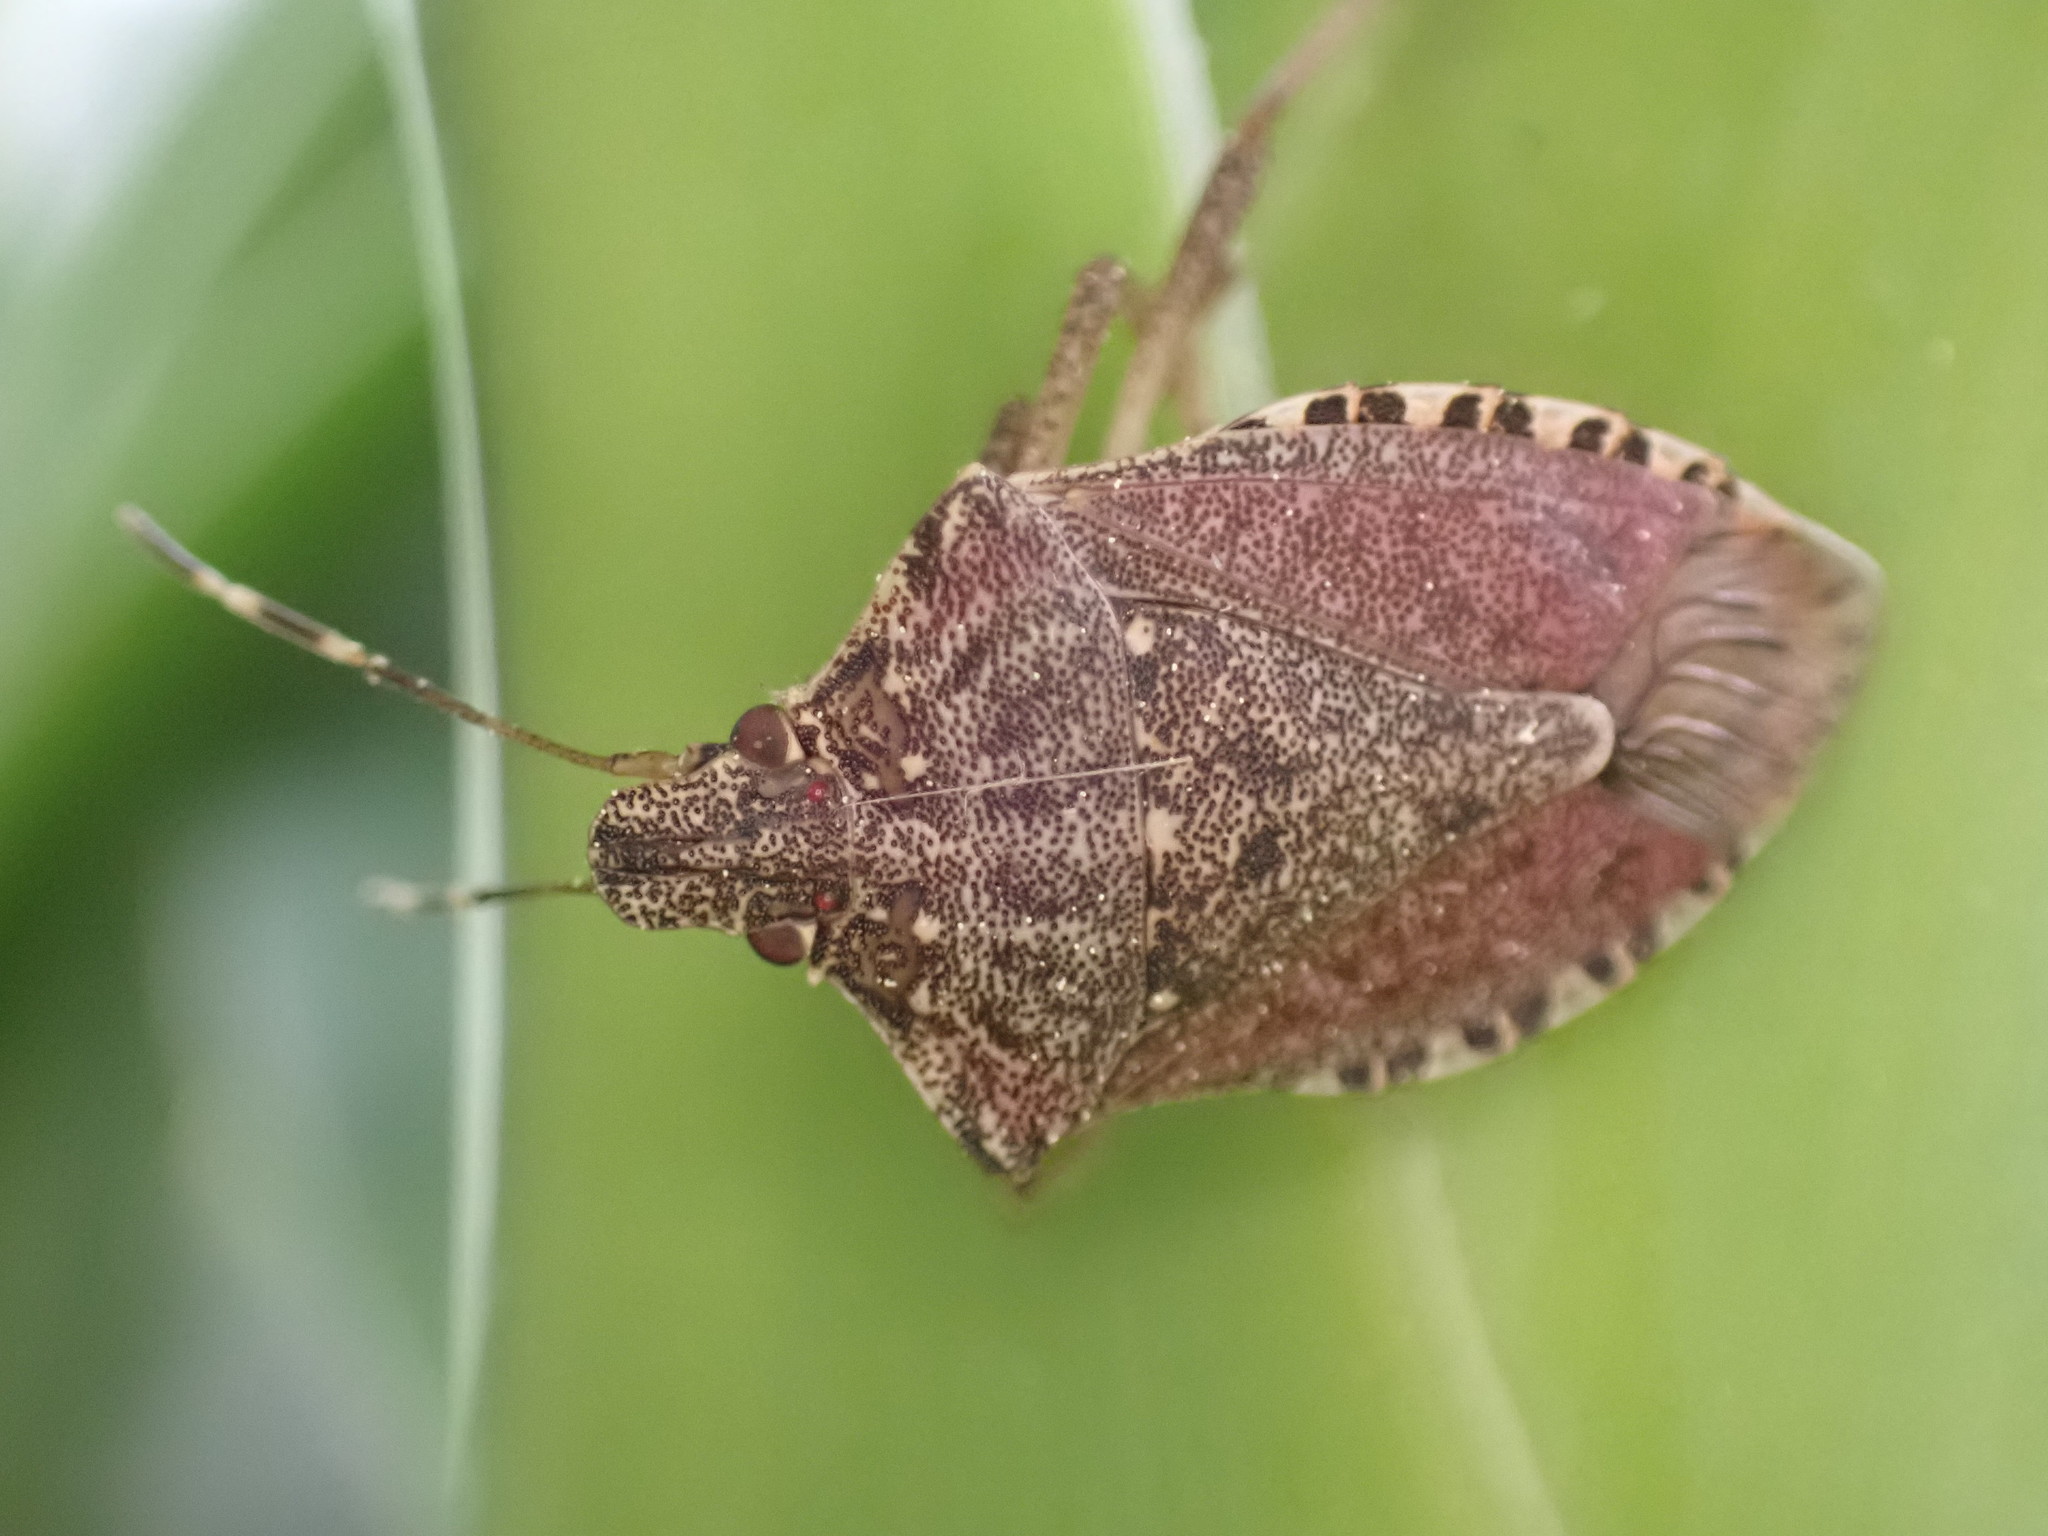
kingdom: Animalia
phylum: Arthropoda
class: Insecta
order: Hemiptera
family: Pentatomidae
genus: Halyomorpha
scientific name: Halyomorpha halys
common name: Brown marmorated stink bug
